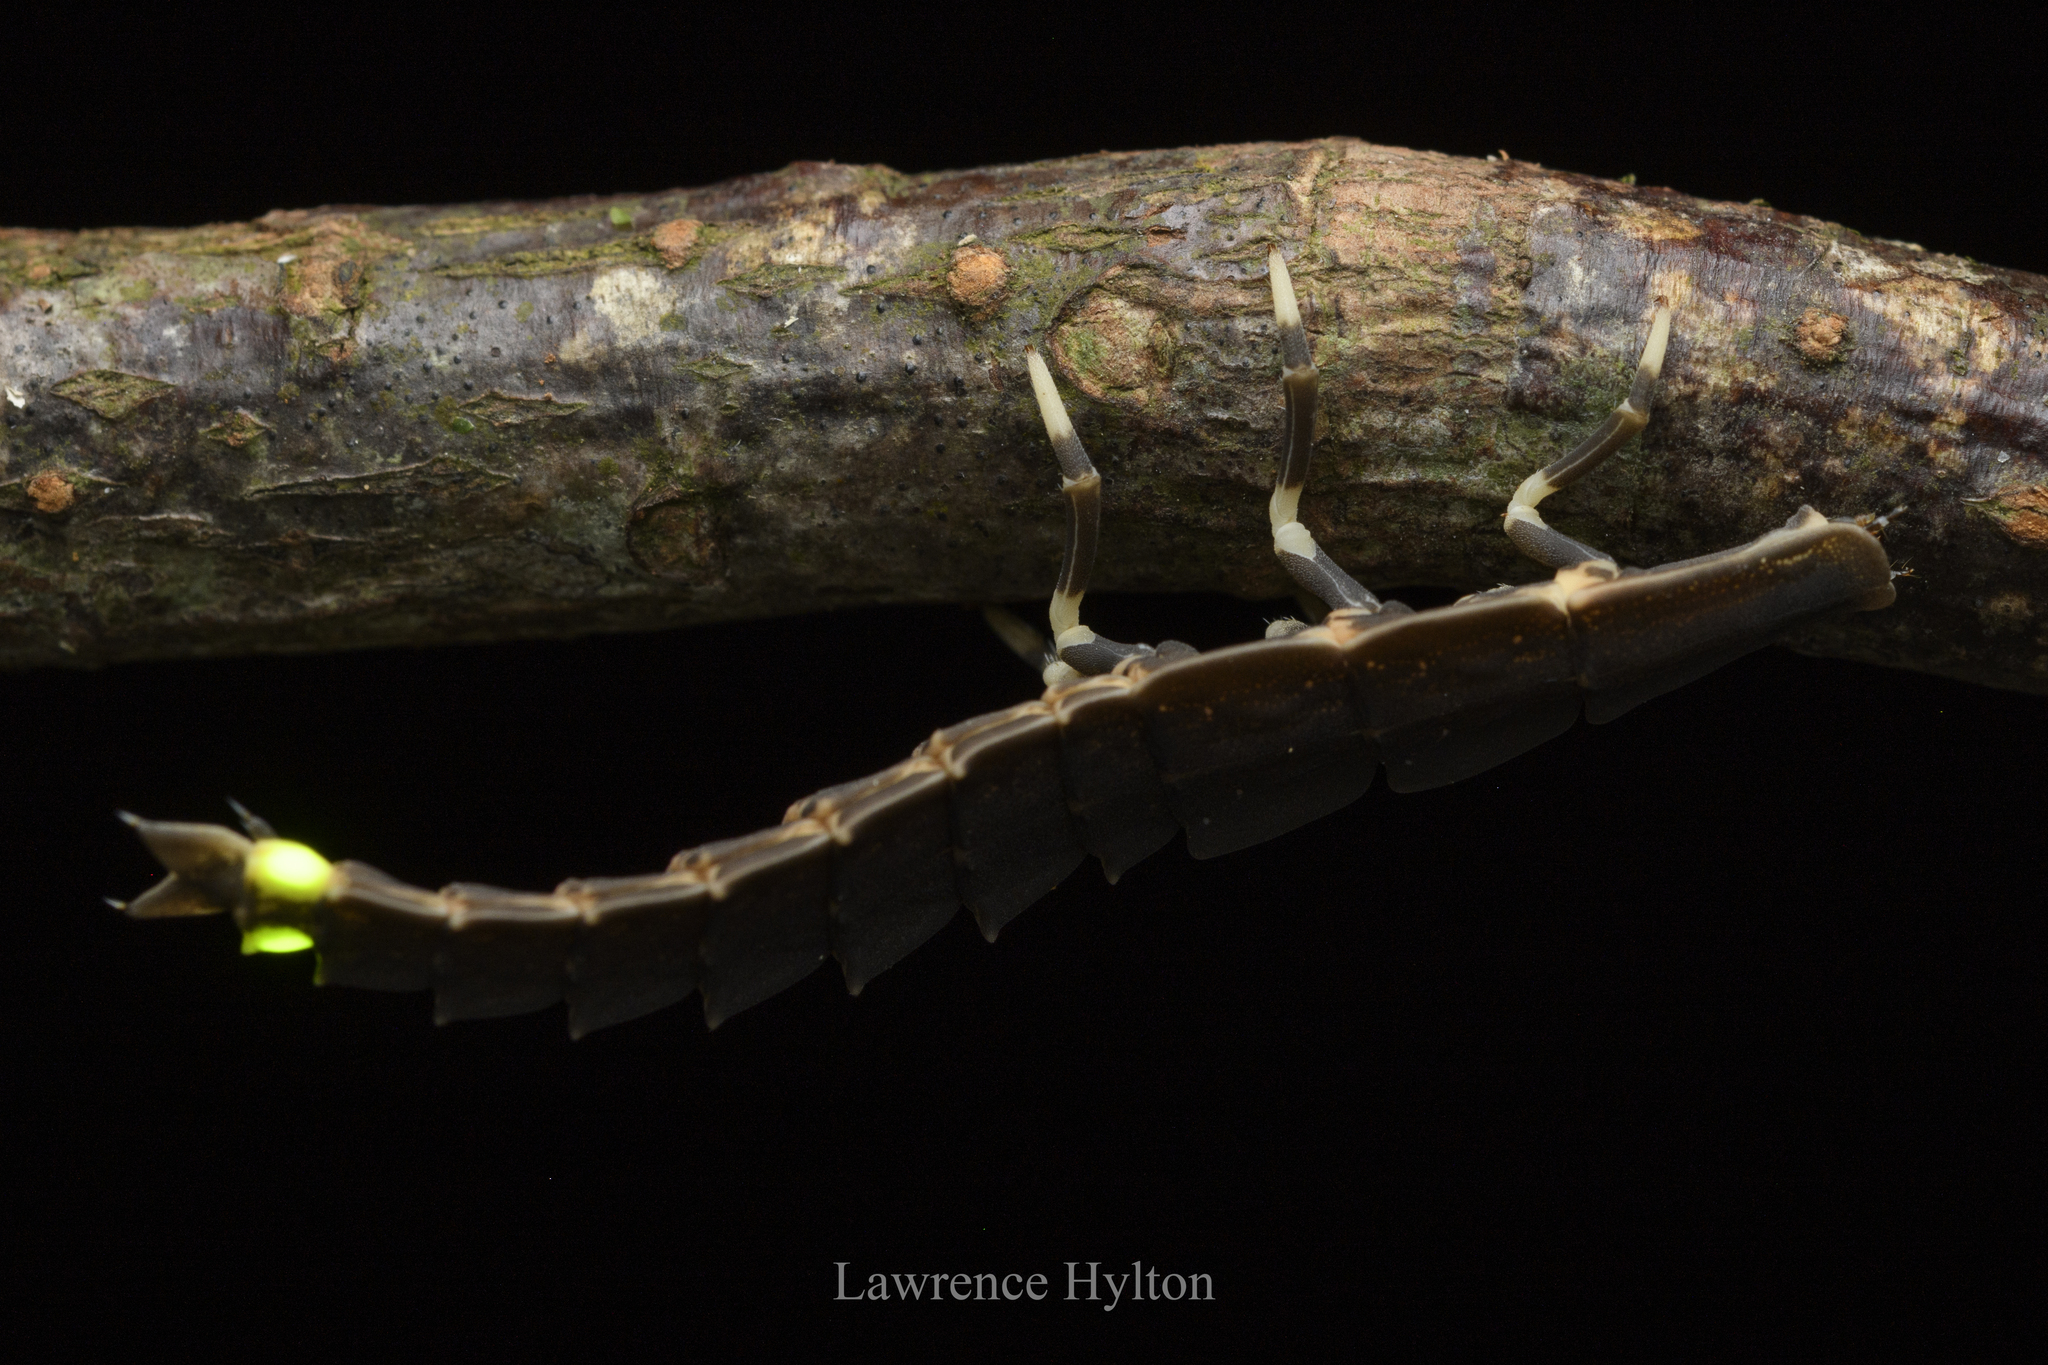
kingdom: Animalia
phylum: Arthropoda
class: Insecta
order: Coleoptera
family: Lampyridae
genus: Pyrocoelia
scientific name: Pyrocoelia lunata
